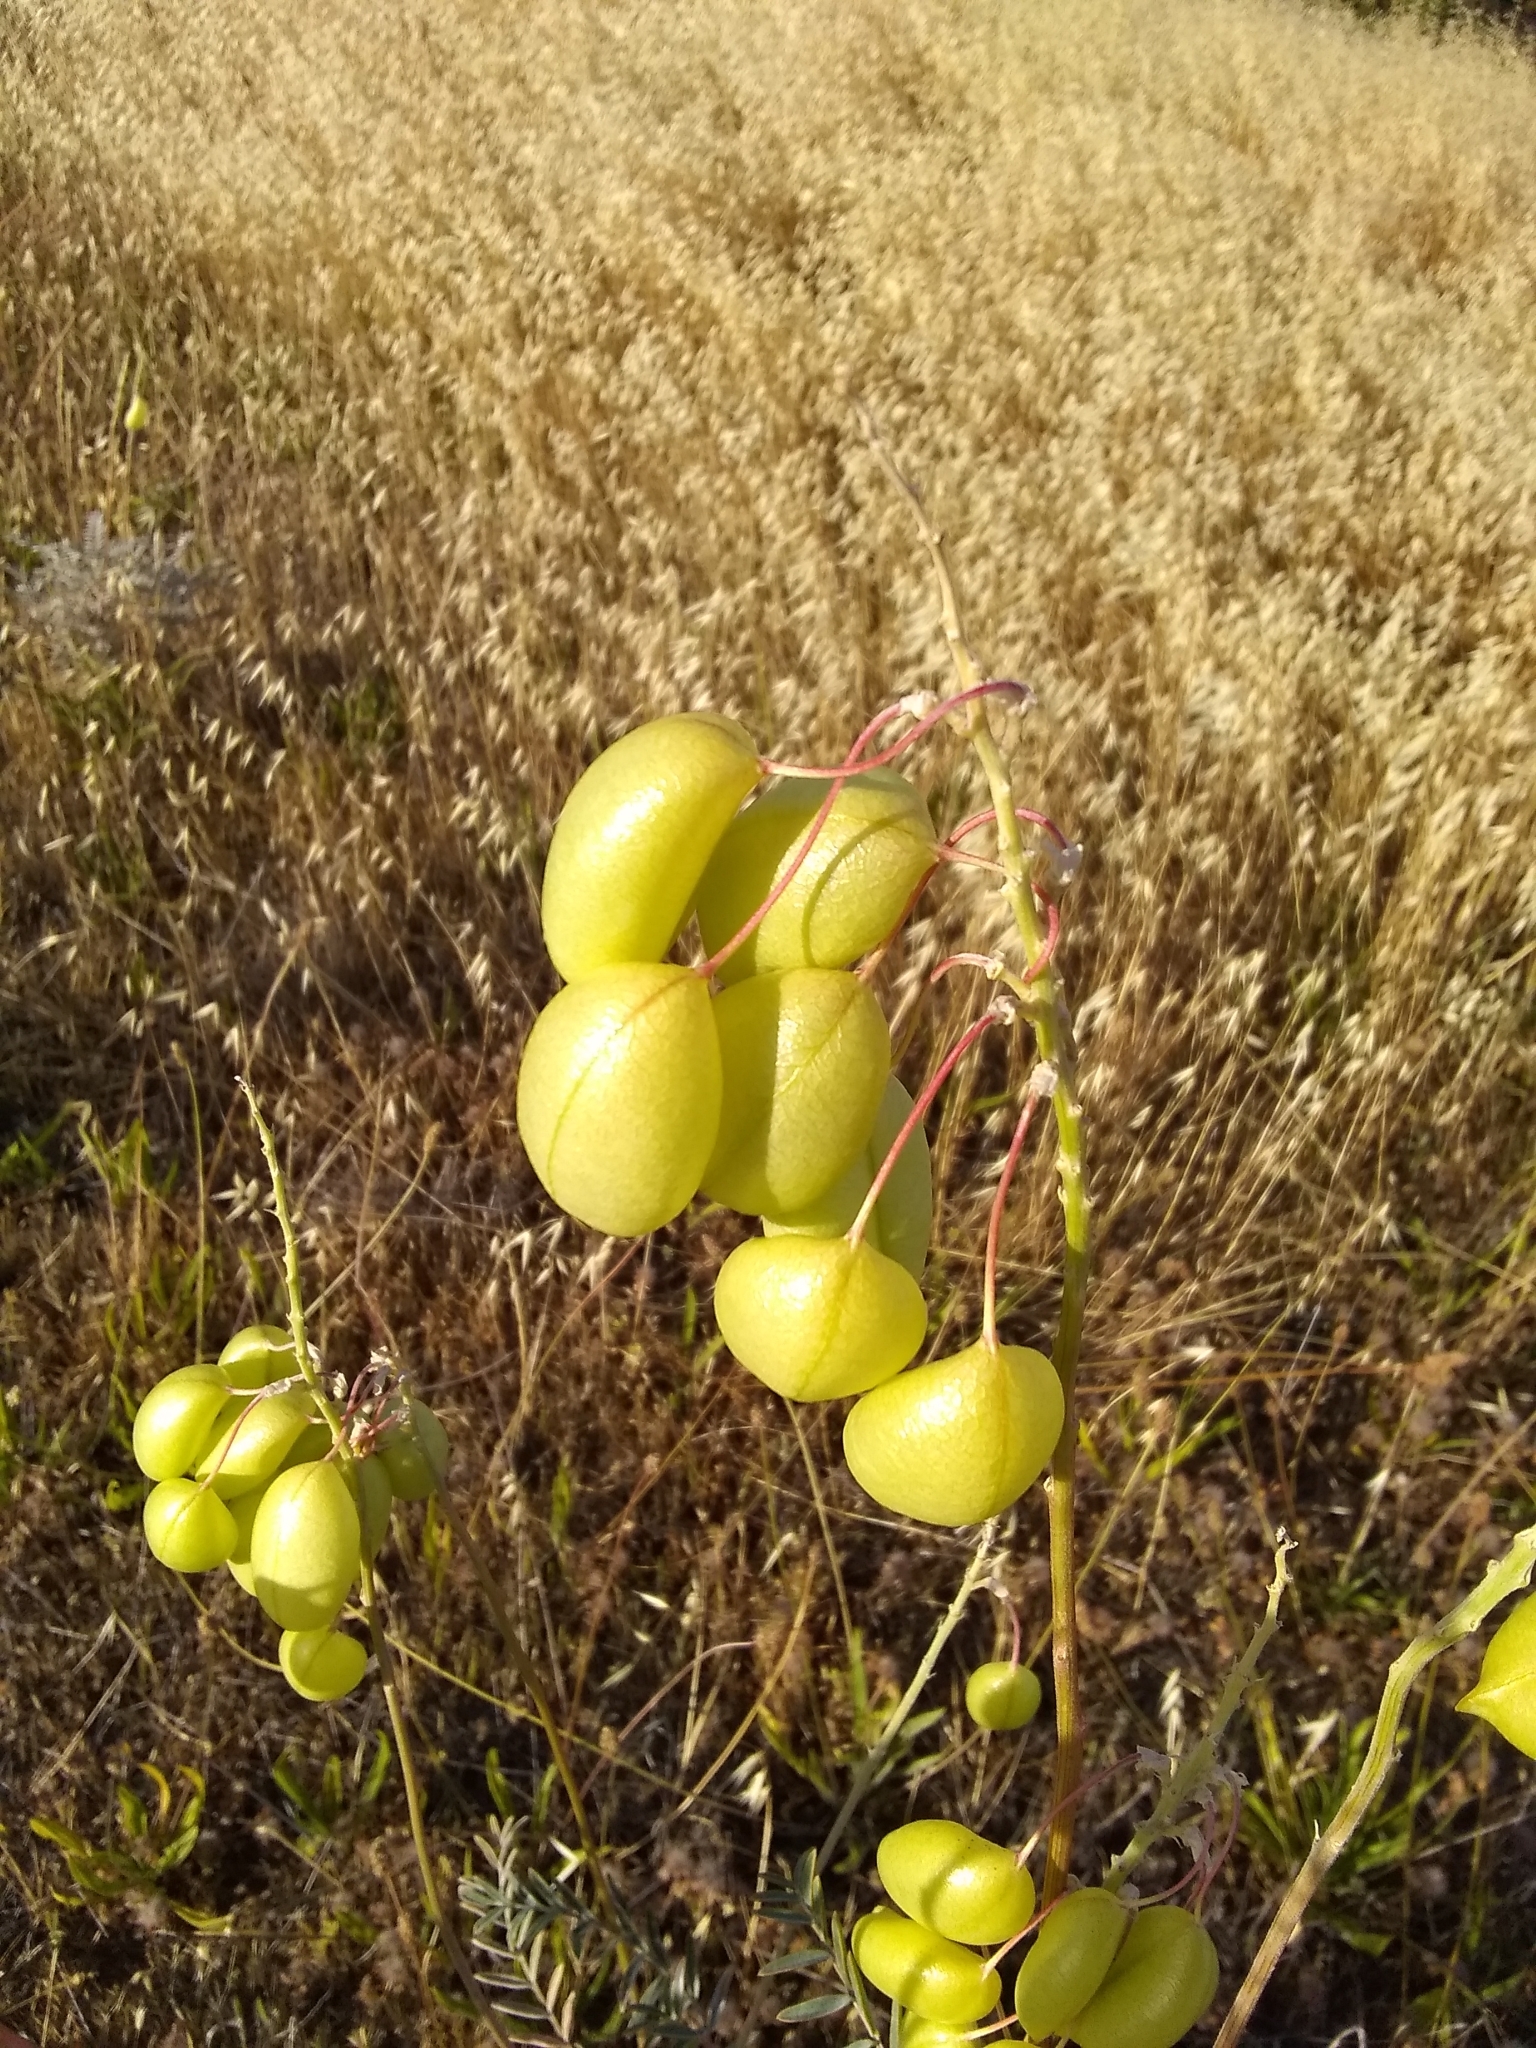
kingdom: Plantae
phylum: Tracheophyta
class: Magnoliopsida
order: Fabales
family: Fabaceae
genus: Astragalus
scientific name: Astragalus asymmetricus
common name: Horse locoweed
